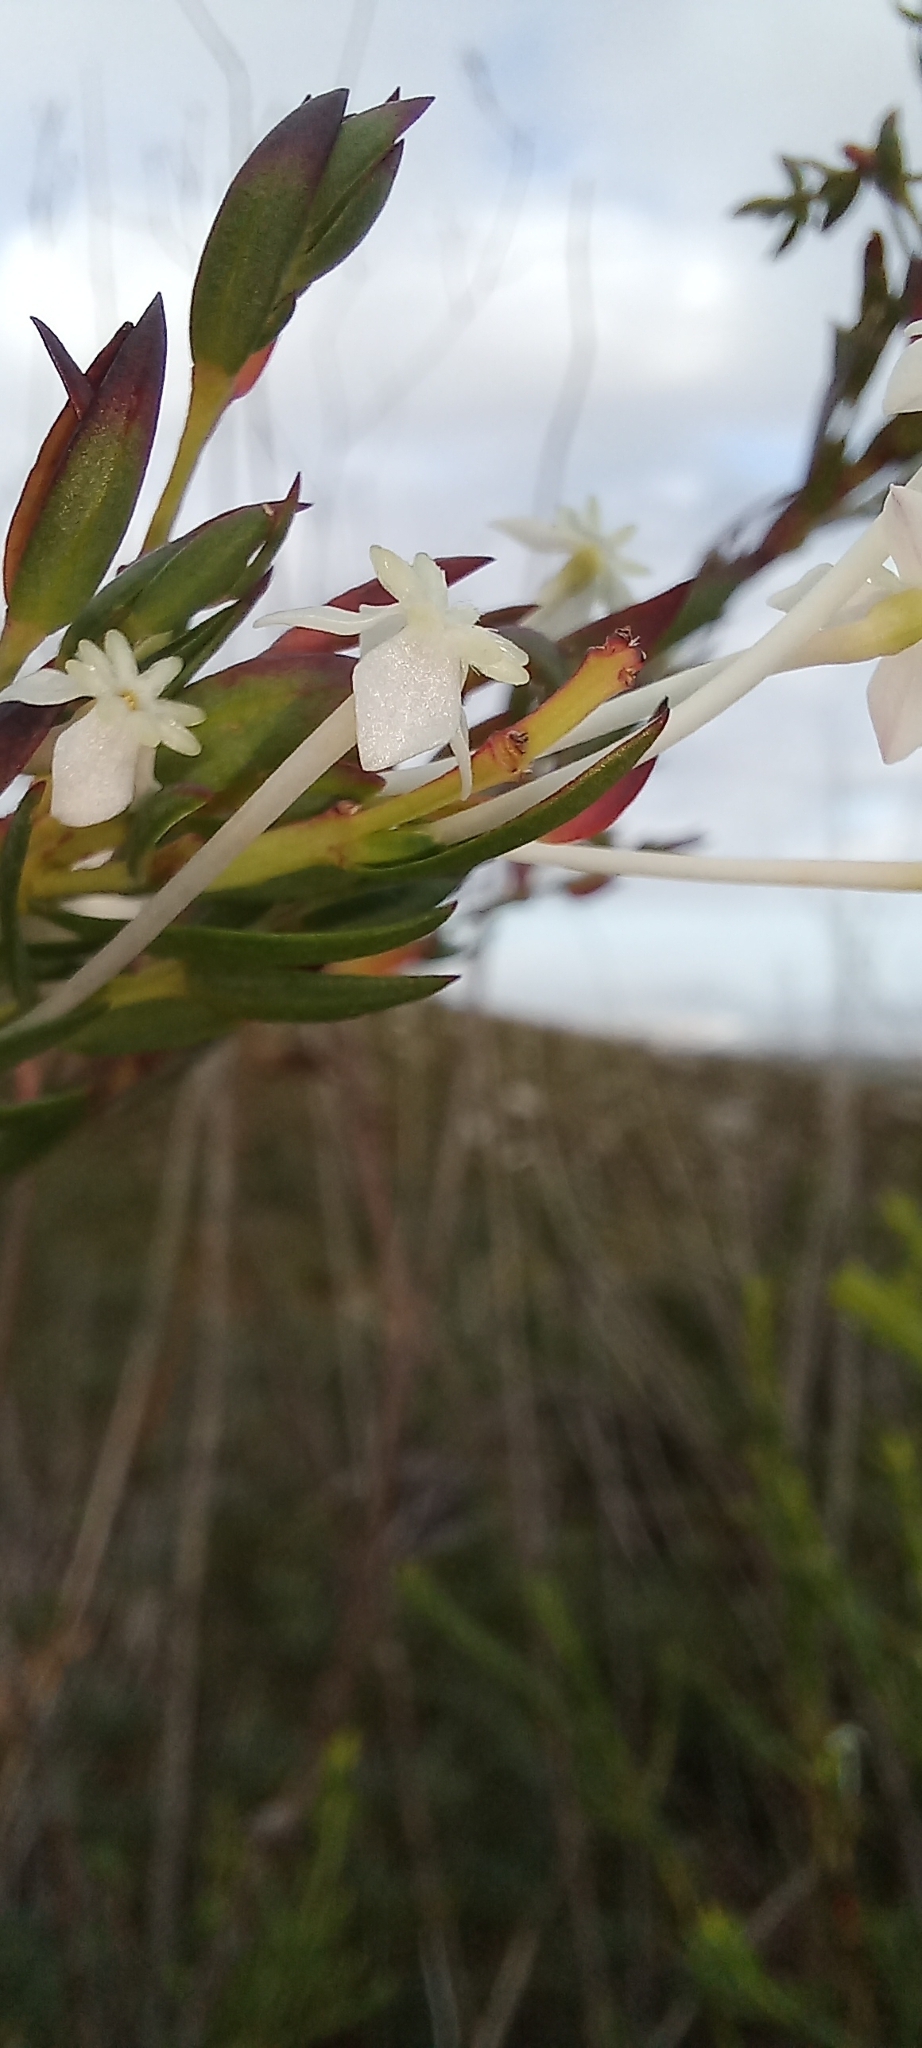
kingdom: Plantae
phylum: Tracheophyta
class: Magnoliopsida
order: Malvales
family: Thymelaeaceae
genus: Struthiola
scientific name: Struthiola myrsinites
